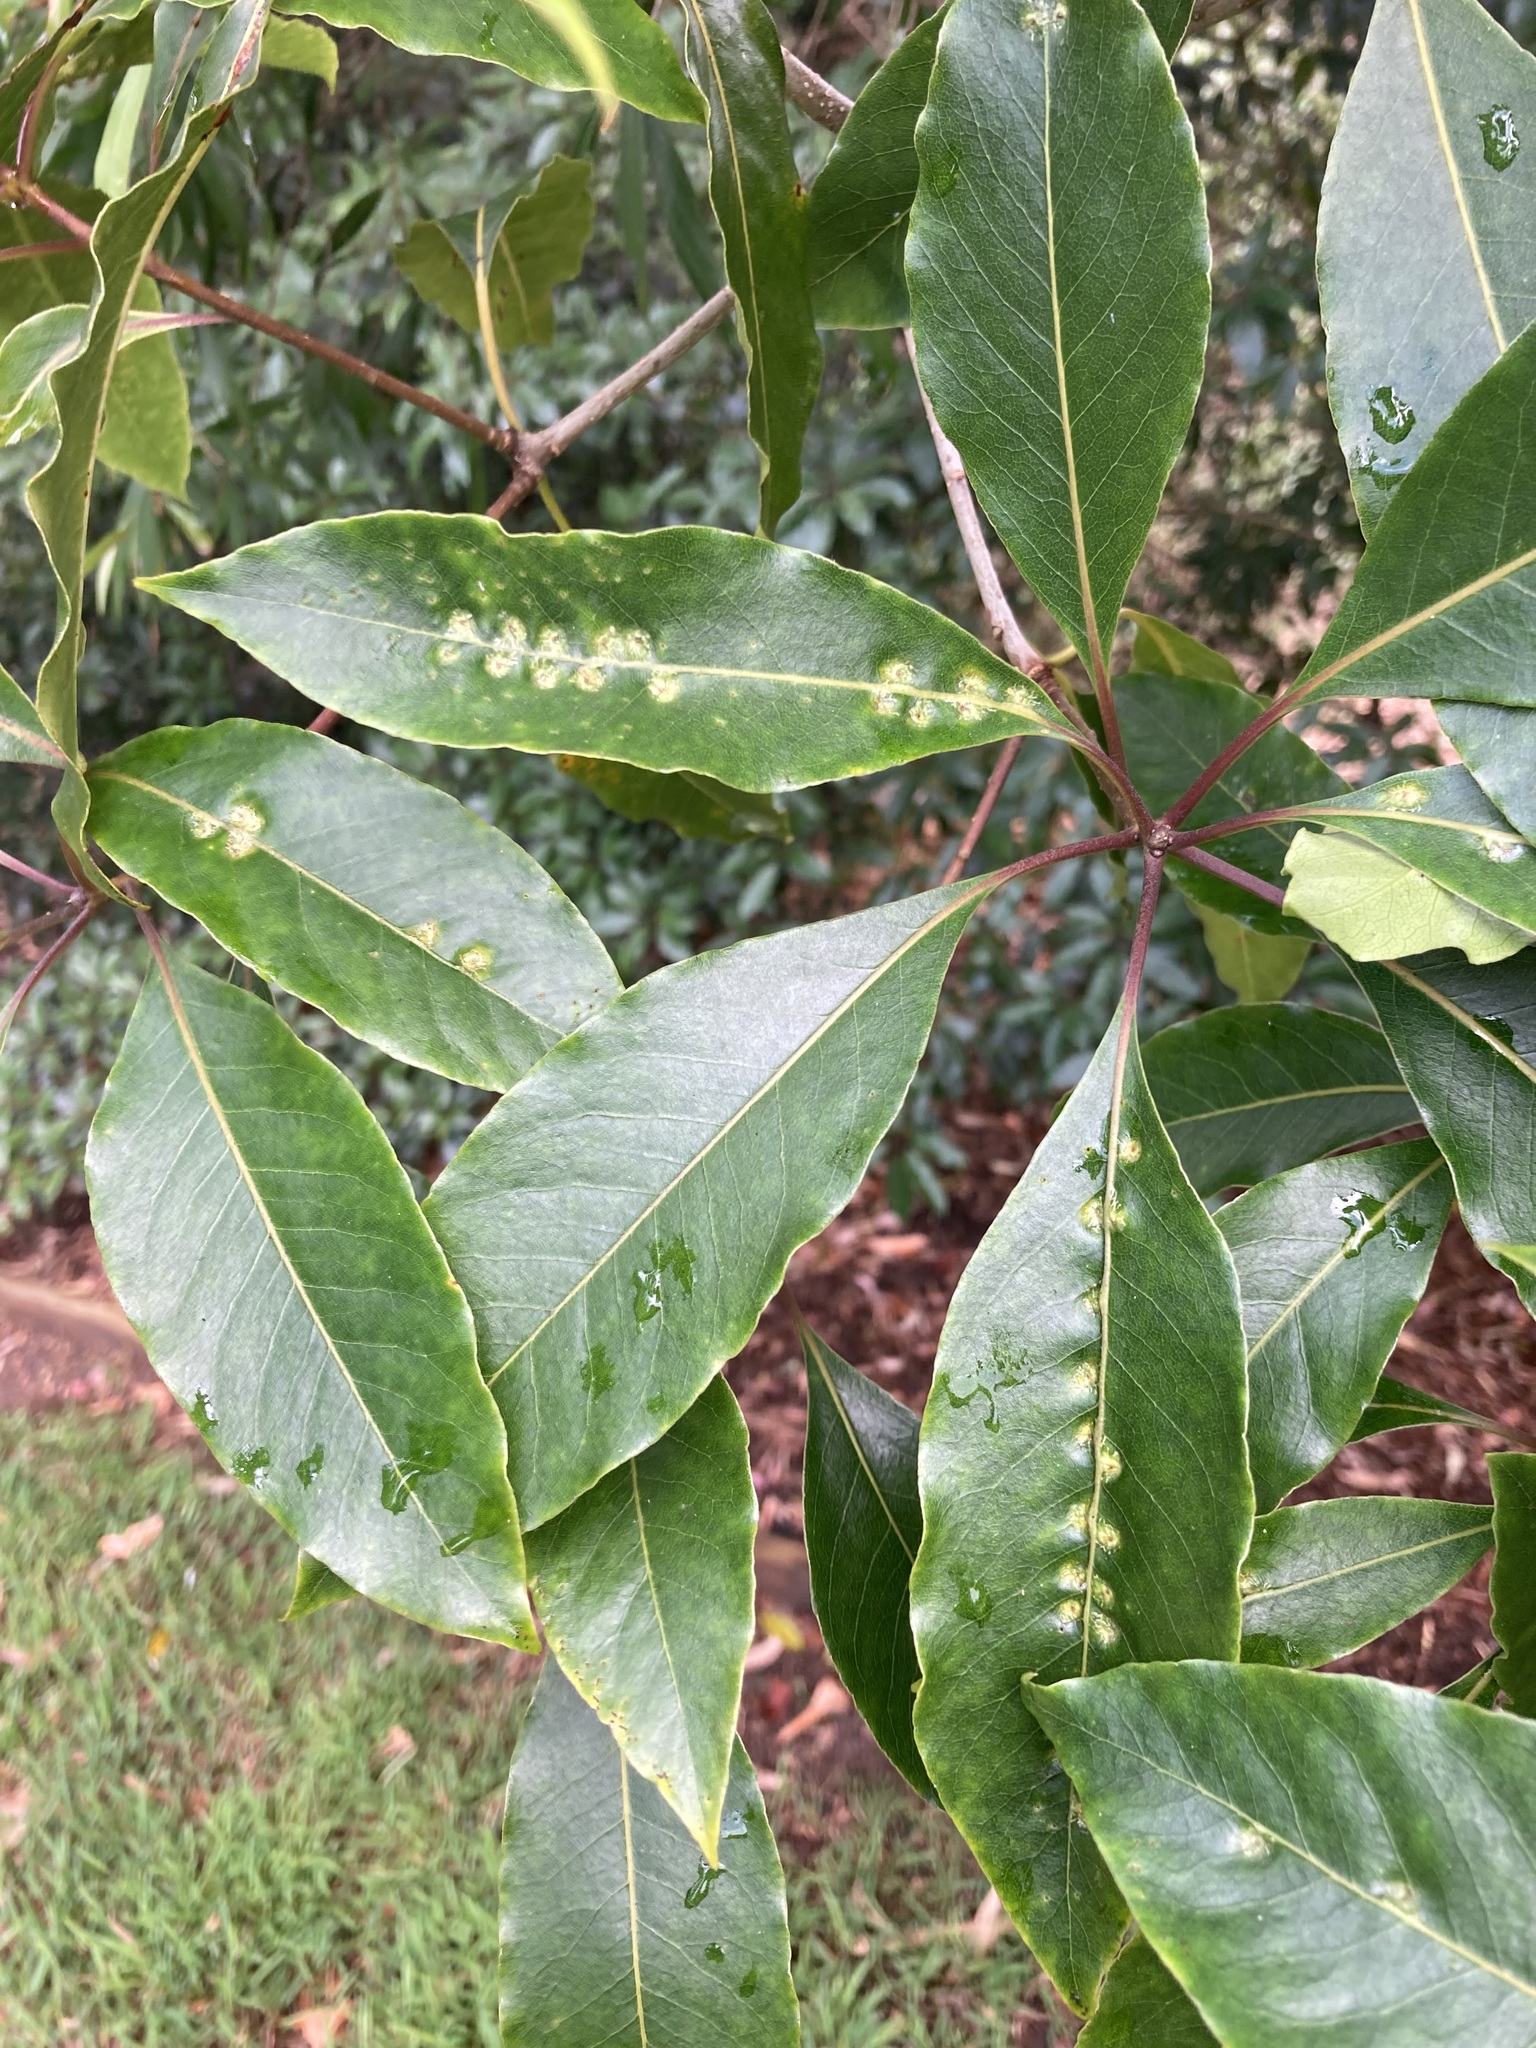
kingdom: Animalia
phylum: Arthropoda
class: Insecta
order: Diptera
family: Agromyzidae
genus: Phytoliriomyza
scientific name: Phytoliriomyza pittosporophylli
